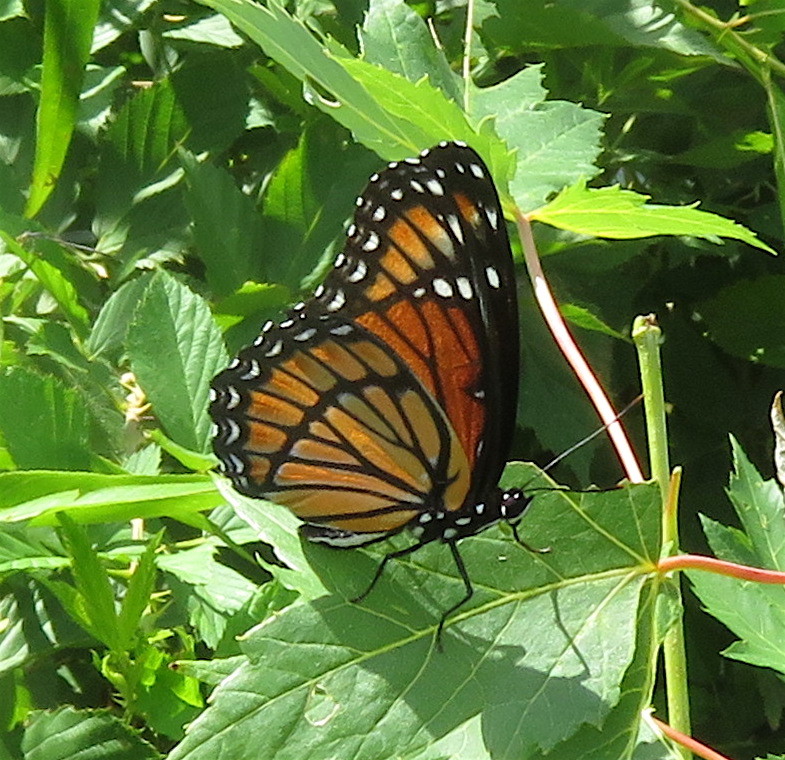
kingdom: Animalia
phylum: Arthropoda
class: Insecta
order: Lepidoptera
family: Nymphalidae
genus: Limenitis
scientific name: Limenitis archippus
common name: Viceroy
